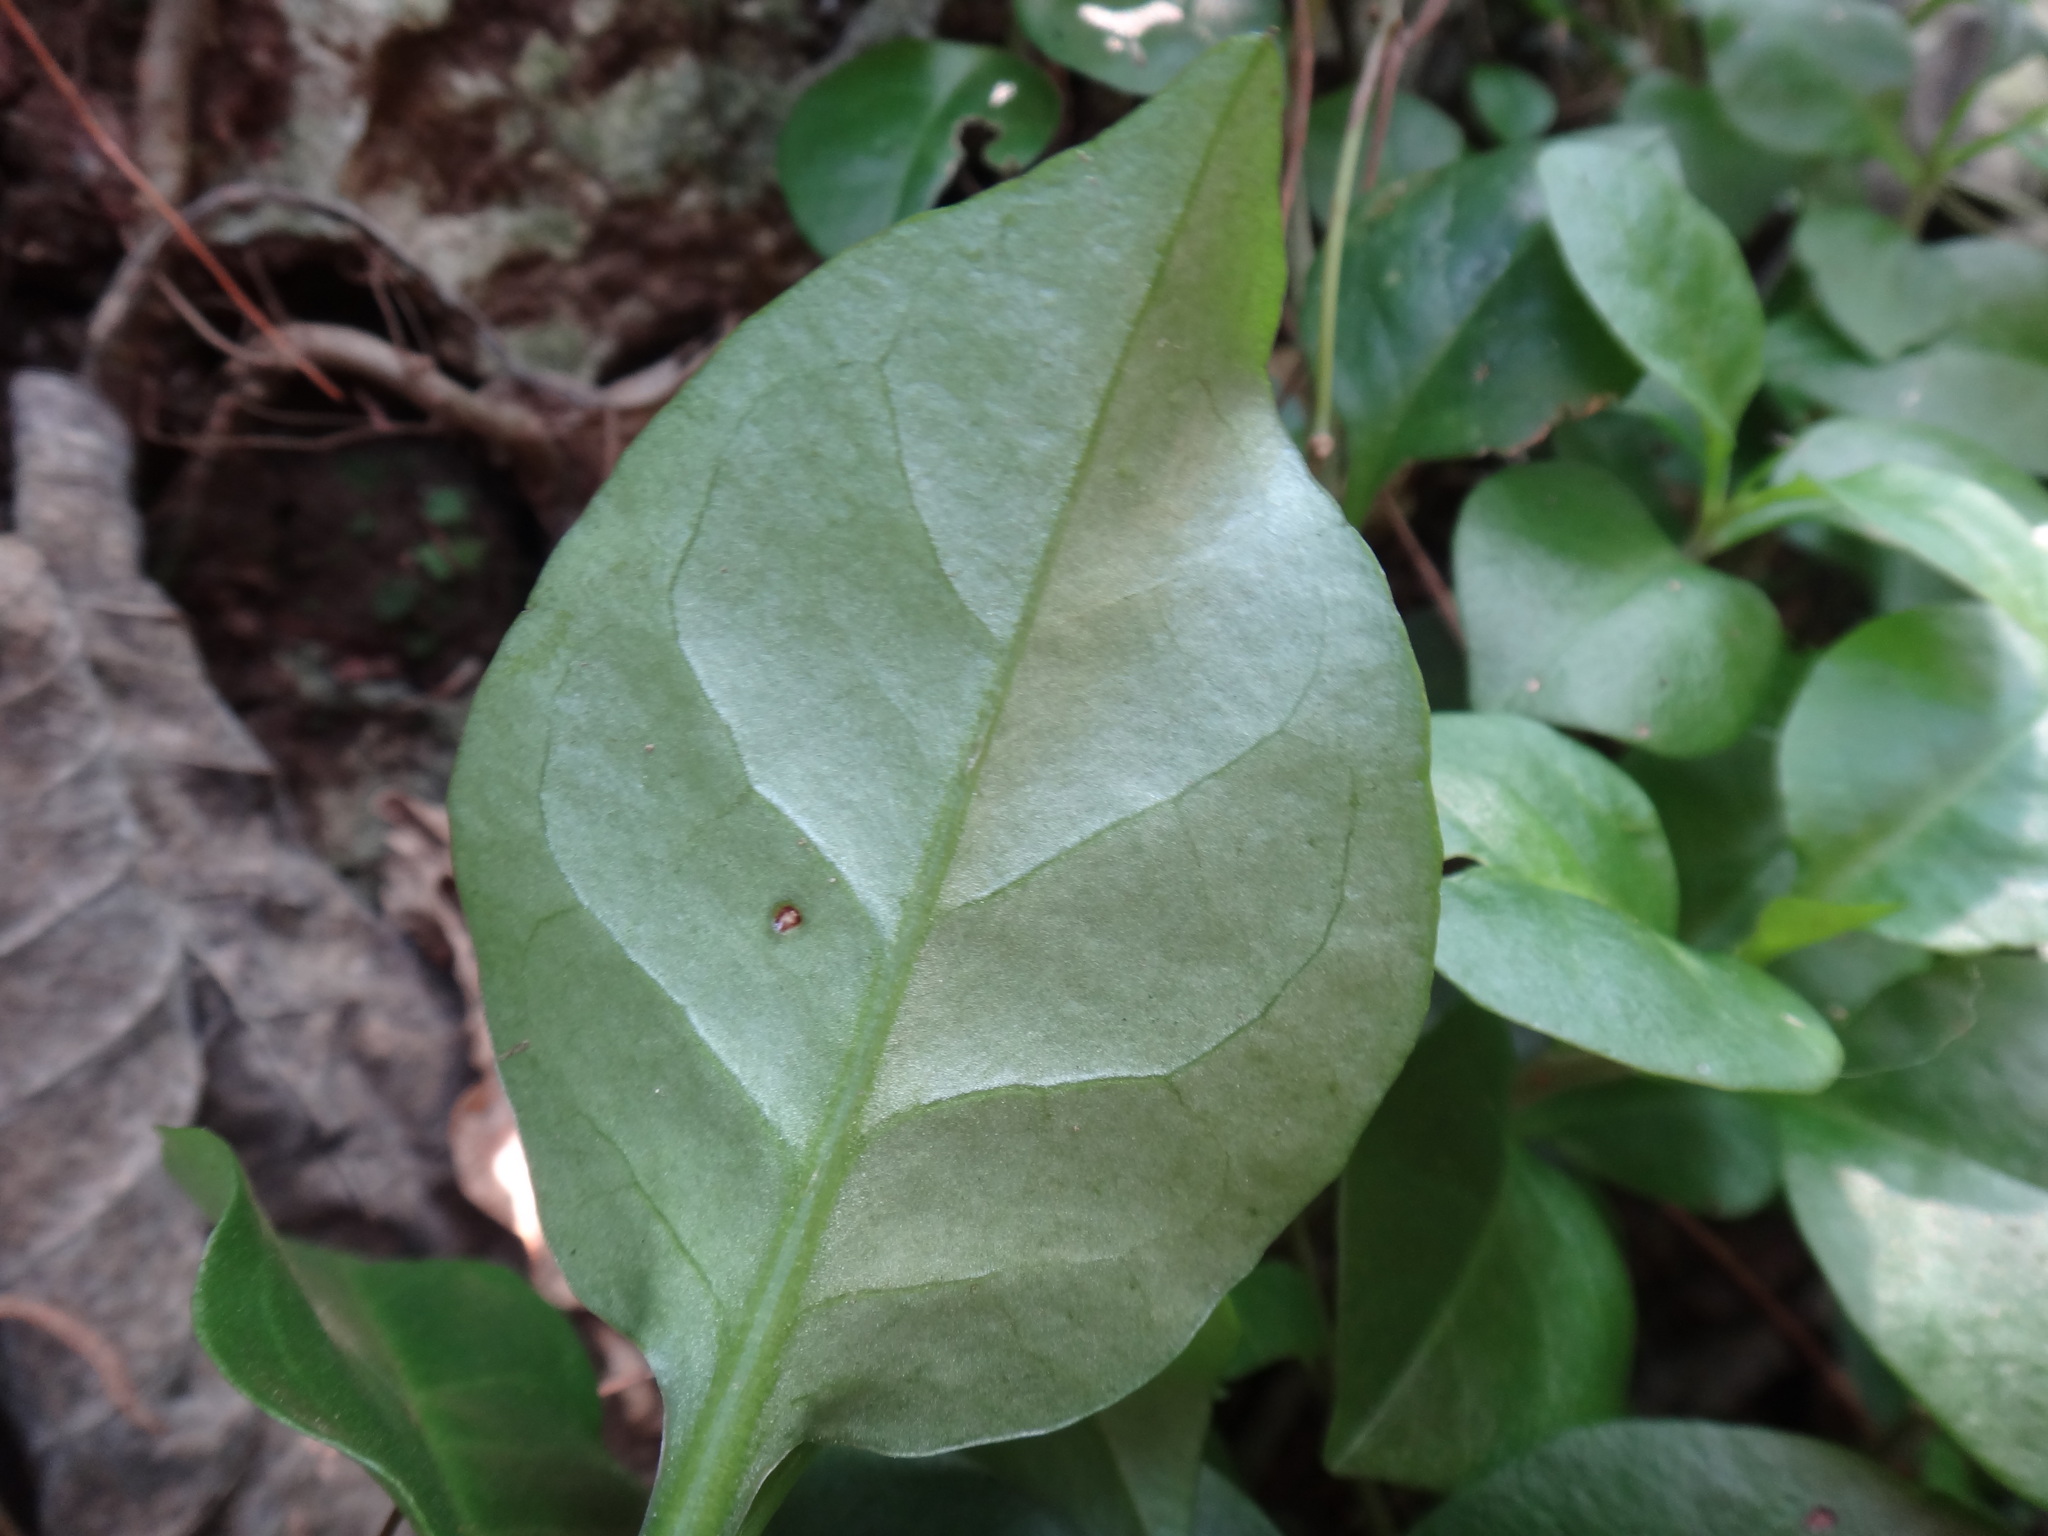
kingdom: Plantae
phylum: Tracheophyta
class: Magnoliopsida
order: Caryophyllales
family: Basellaceae
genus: Anredera
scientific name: Anredera cordifolia
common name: Heartleaf madeiravine
